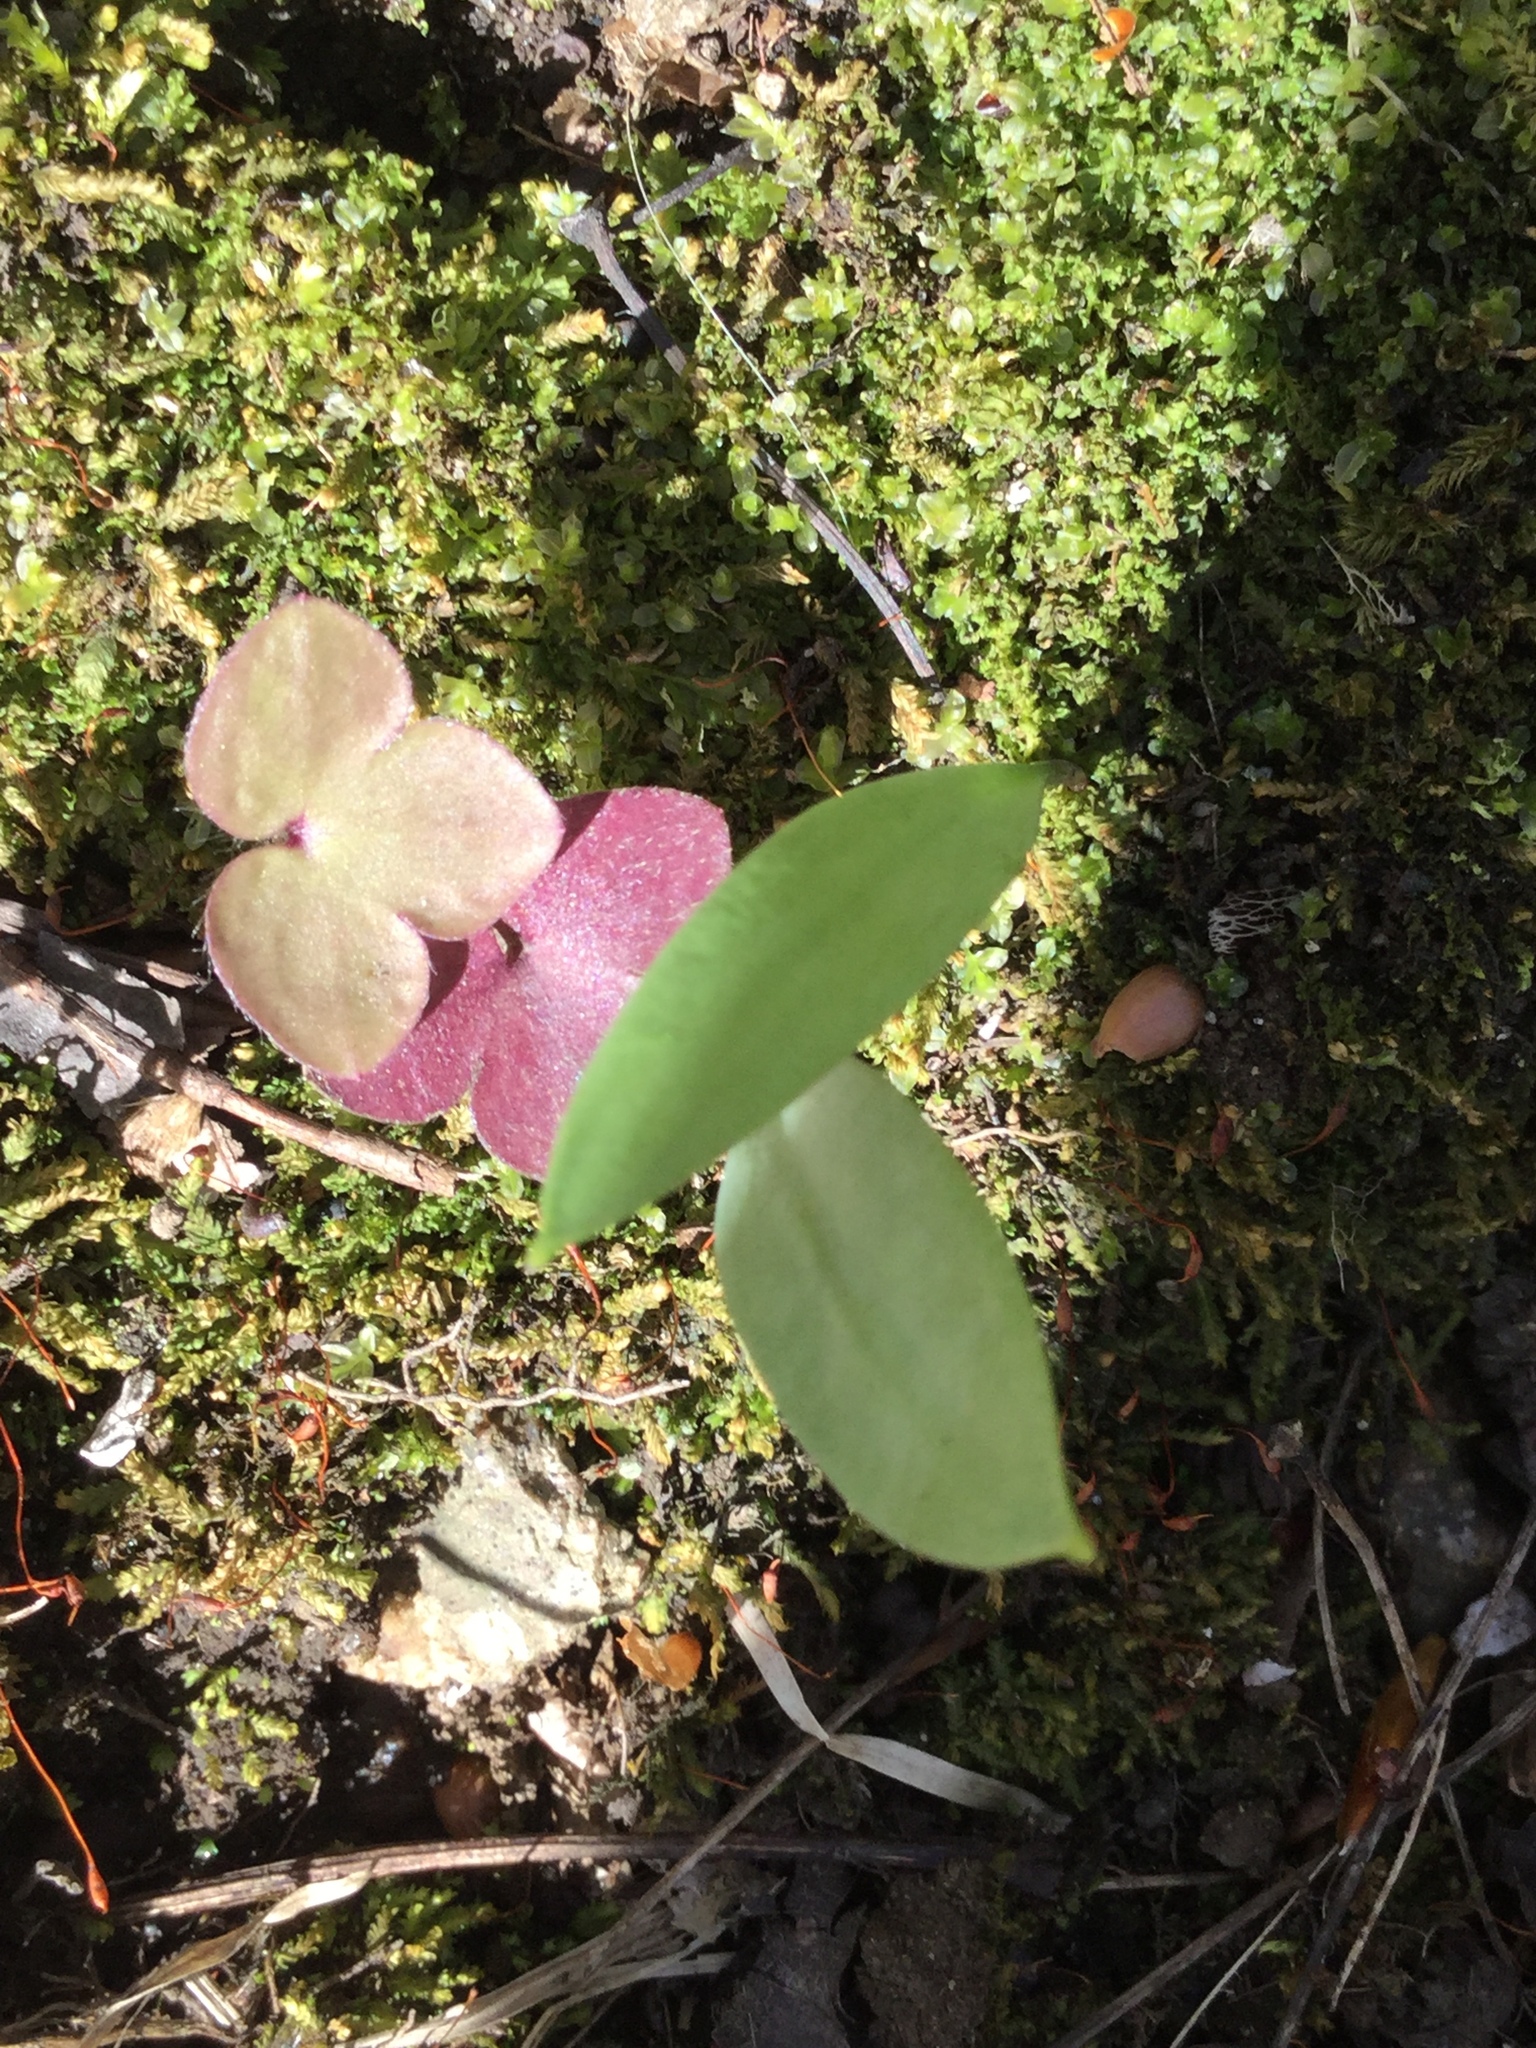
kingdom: Plantae
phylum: Tracheophyta
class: Magnoliopsida
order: Ranunculales
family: Ranunculaceae
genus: Hepatica
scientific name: Hepatica americana
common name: American hepatica
